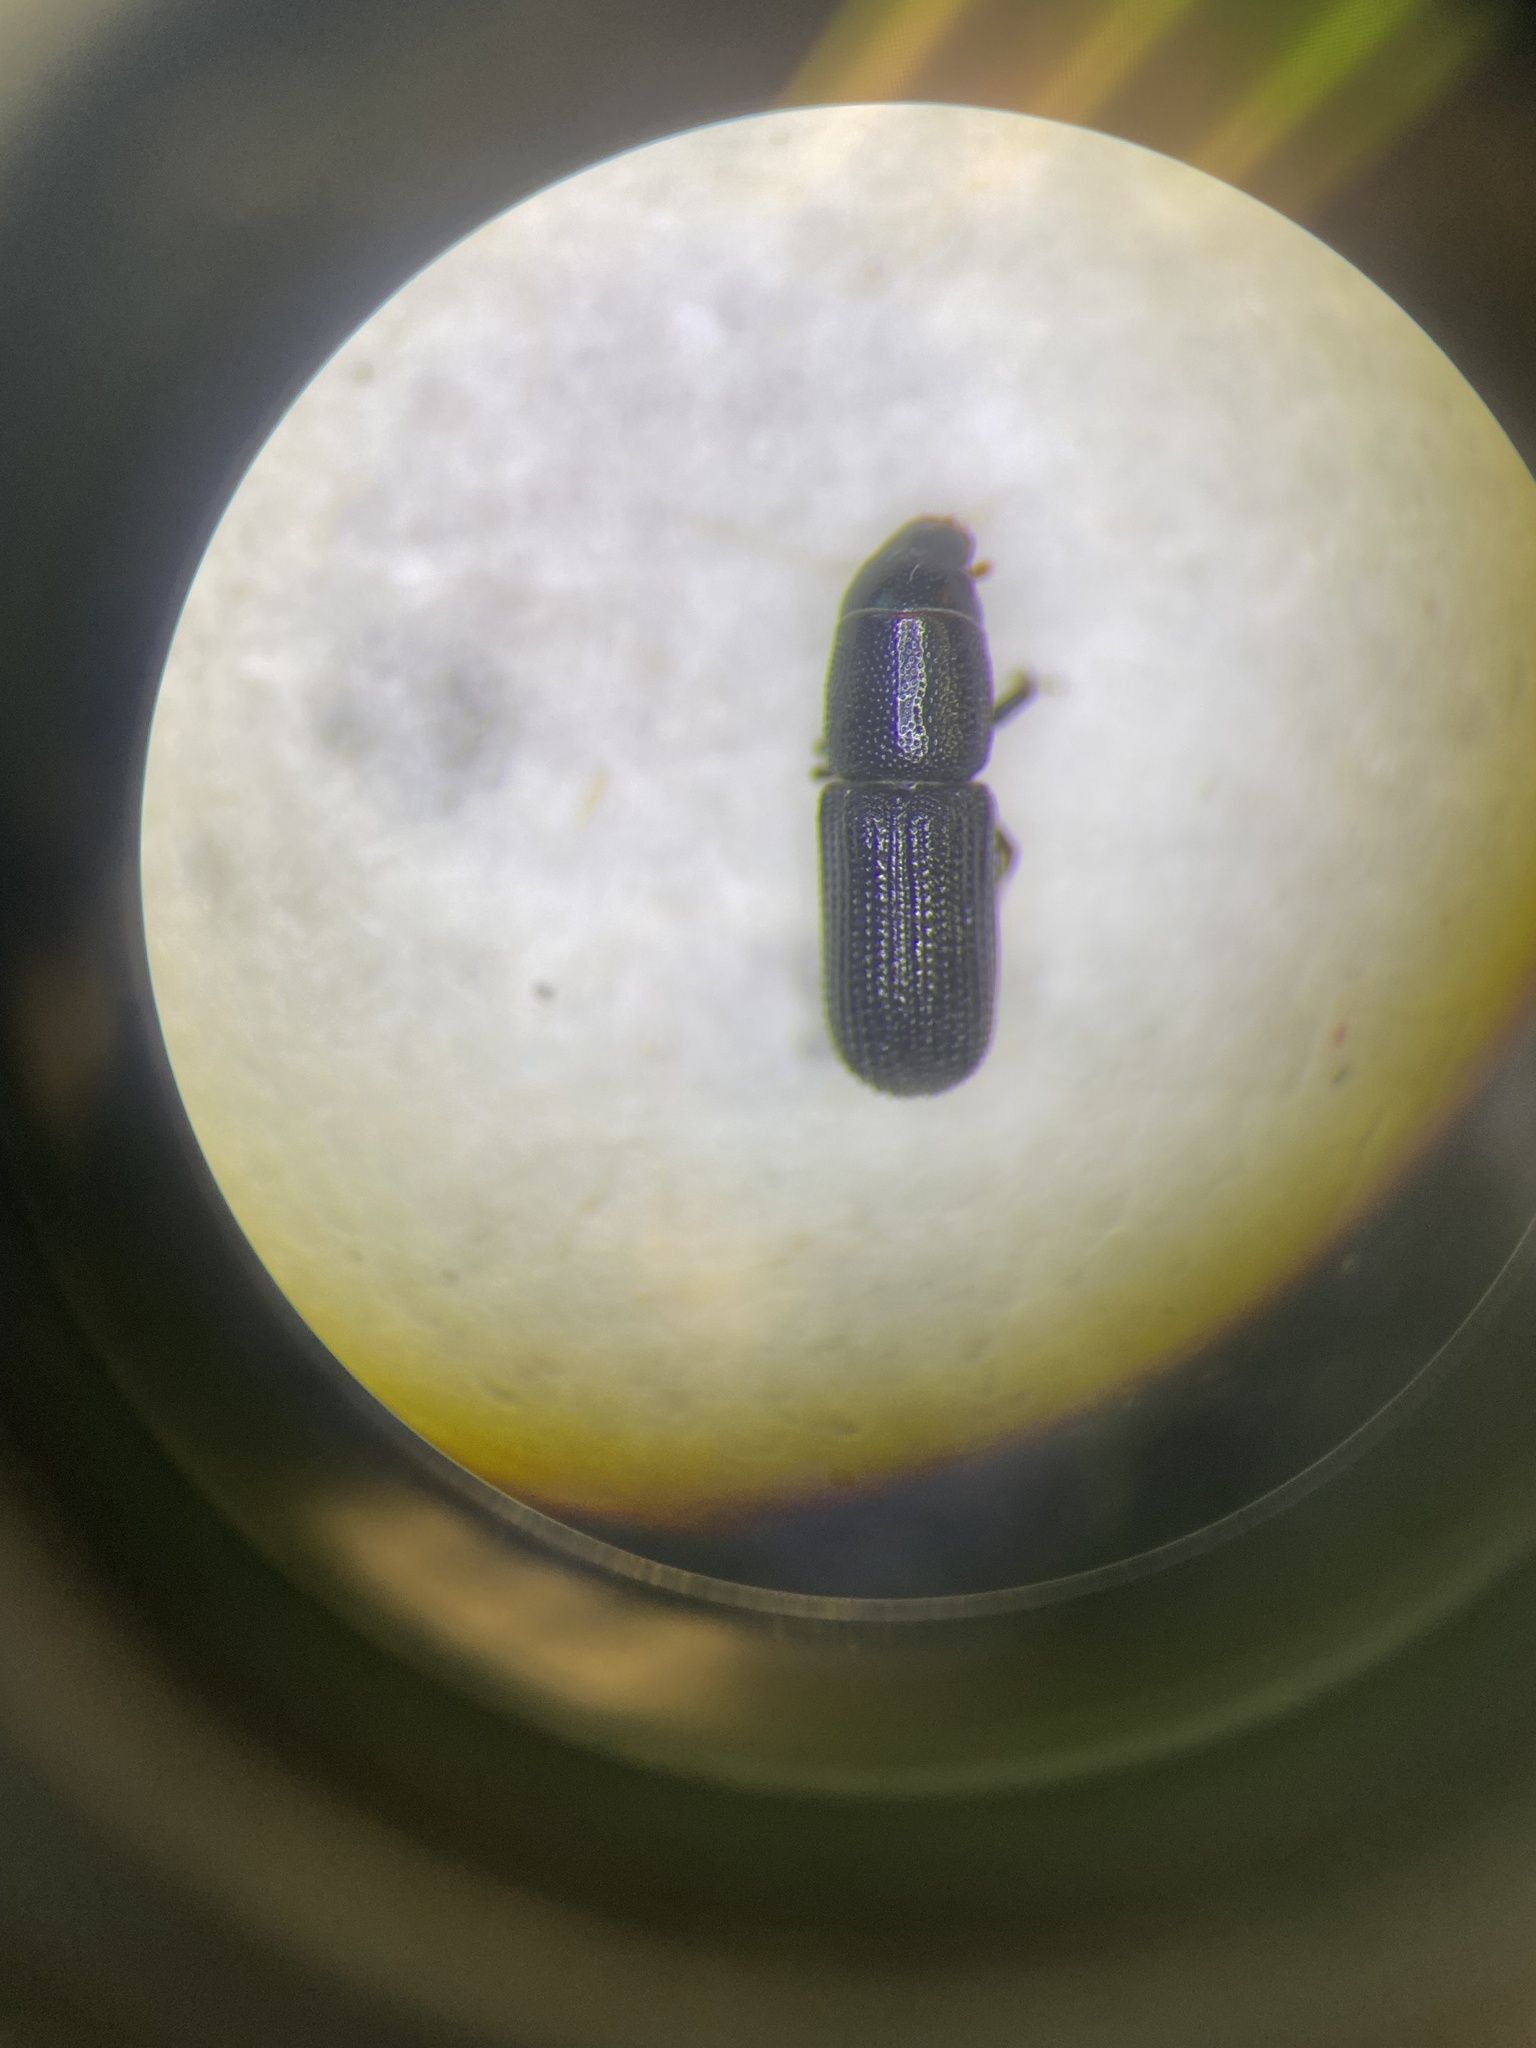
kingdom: Animalia
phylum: Arthropoda
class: Insecta
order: Coleoptera
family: Curculionidae
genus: Stenoscelis
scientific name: Stenoscelis andersoni
